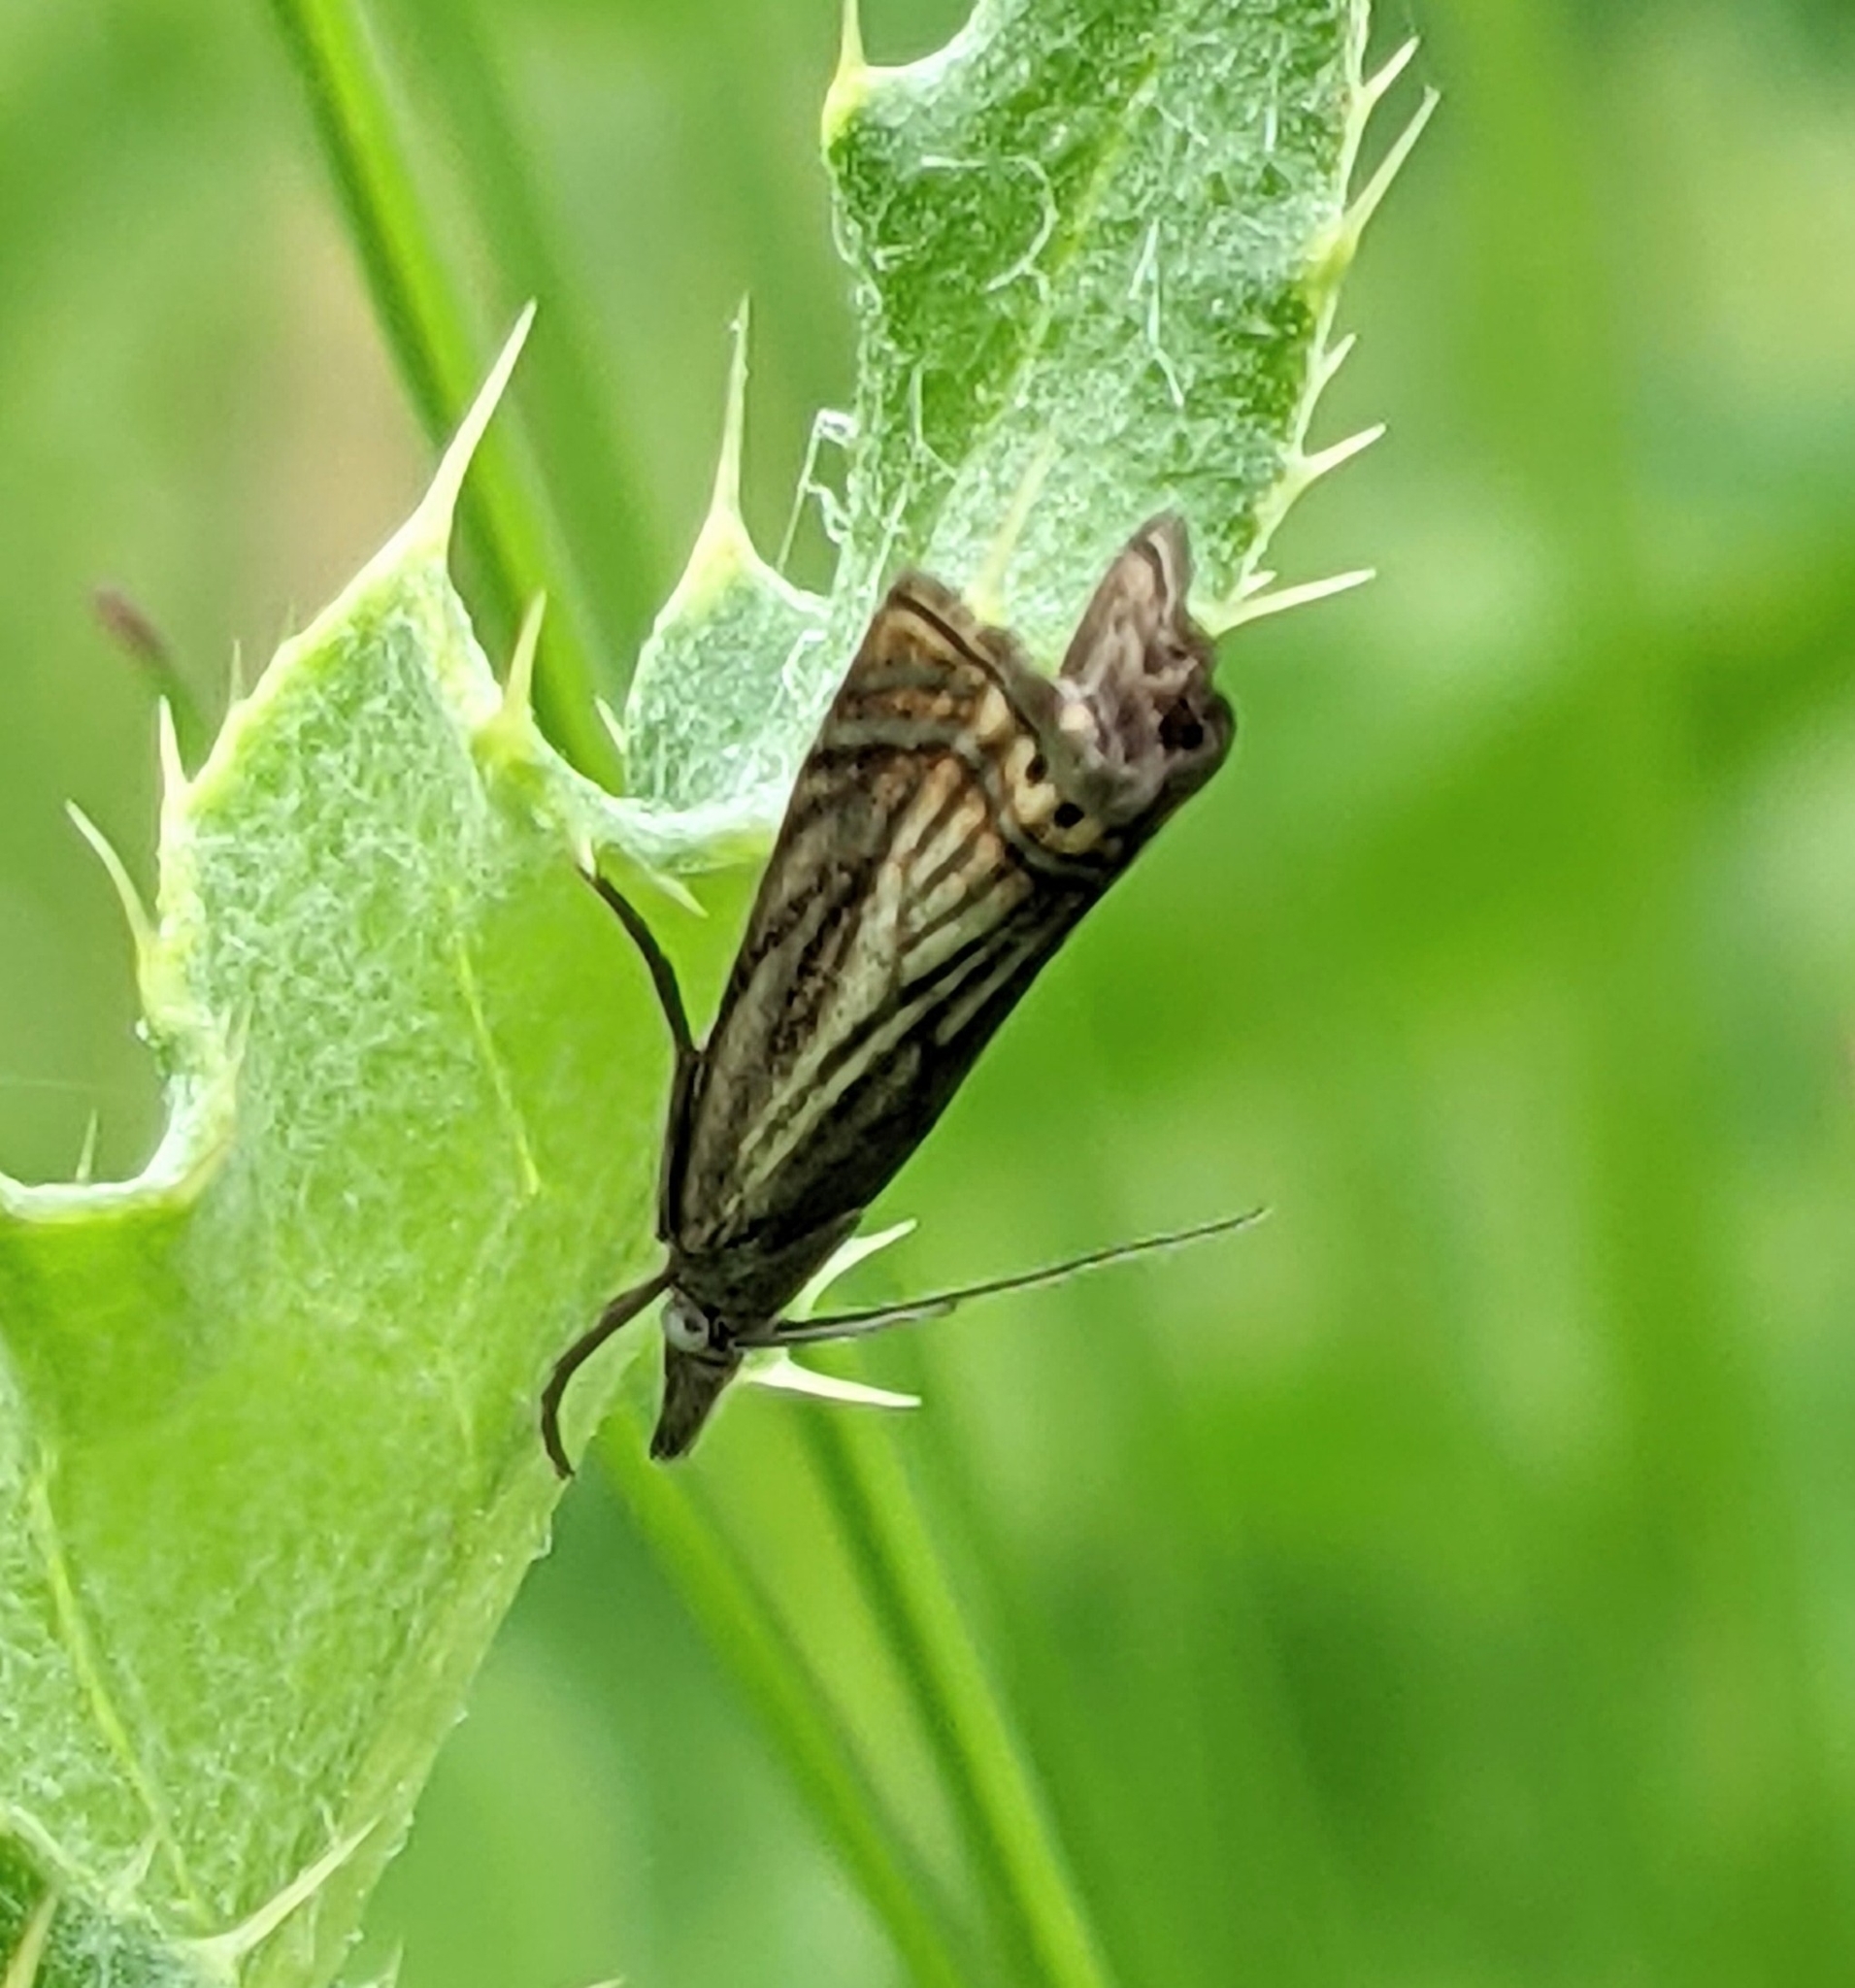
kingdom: Animalia
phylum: Arthropoda
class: Insecta
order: Lepidoptera
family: Crambidae
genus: Chrysoteuchia
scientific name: Chrysoteuchia topiarius
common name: Topiary grass-veneer
